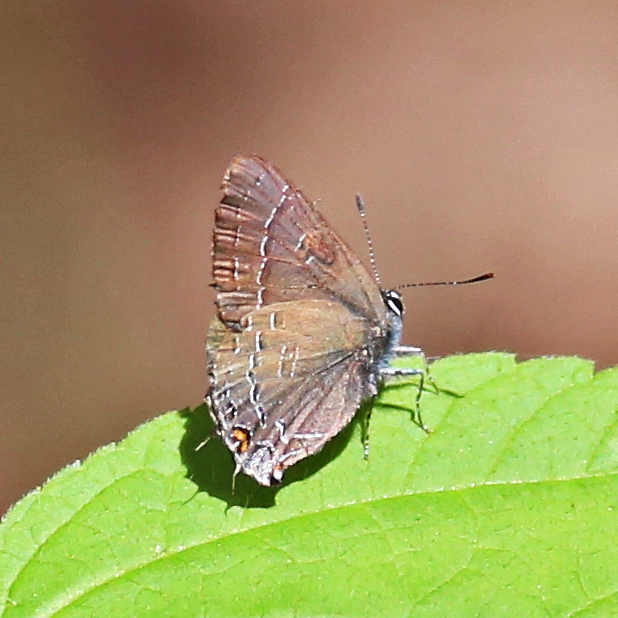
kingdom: Animalia
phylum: Arthropoda
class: Insecta
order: Lepidoptera
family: Lycaenidae
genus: Satyrium
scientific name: Satyrium calanus
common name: Banded hairstreak
